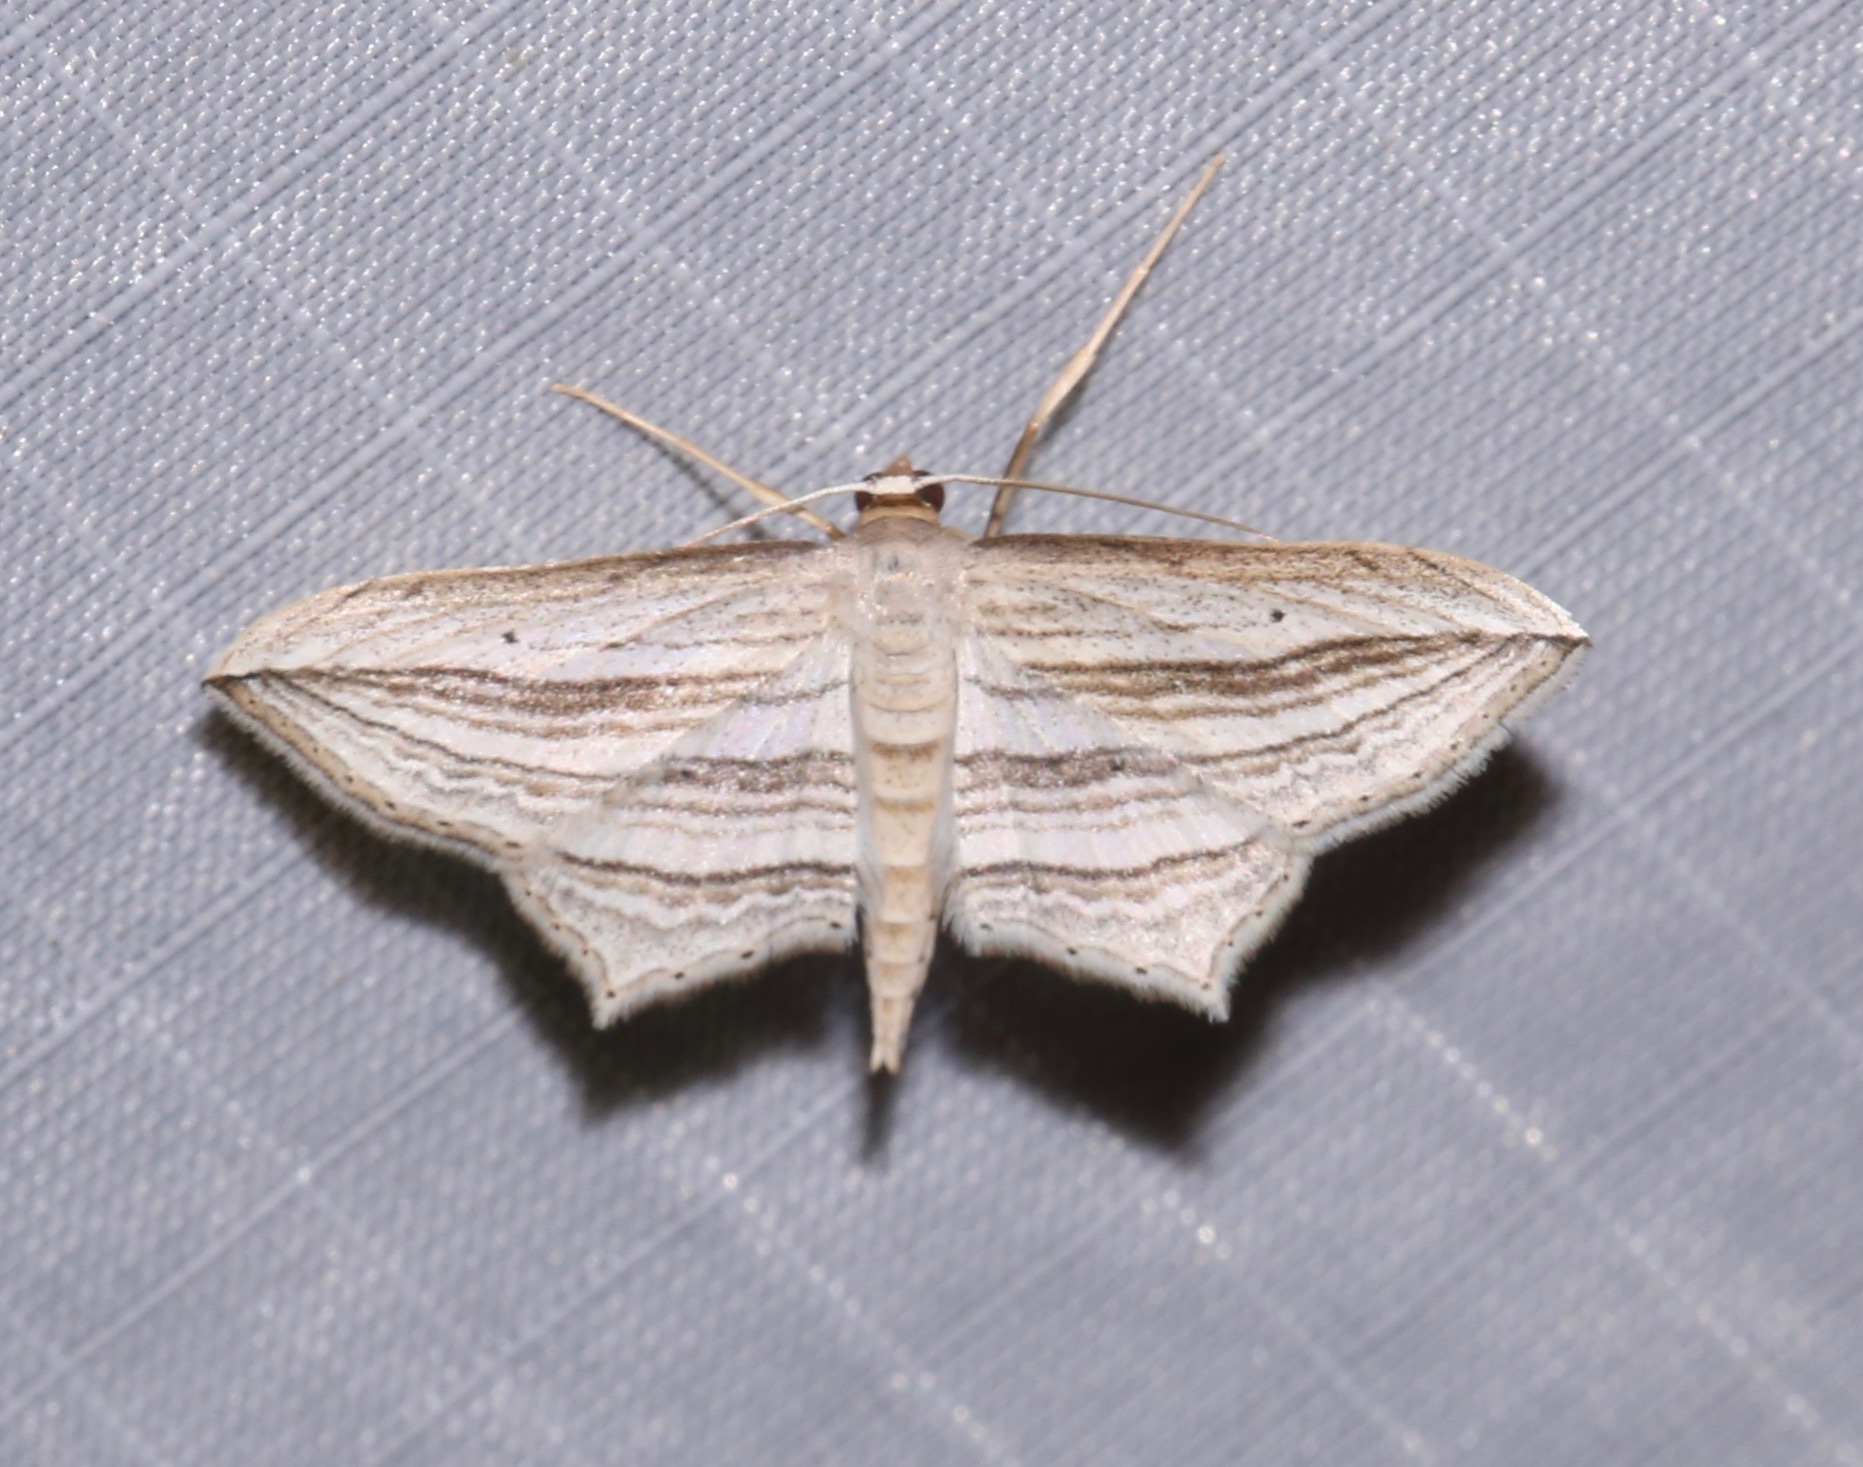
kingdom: Animalia
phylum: Arthropoda
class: Insecta
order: Lepidoptera
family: Geometridae
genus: Arcobara
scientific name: Arcobara multilineata
